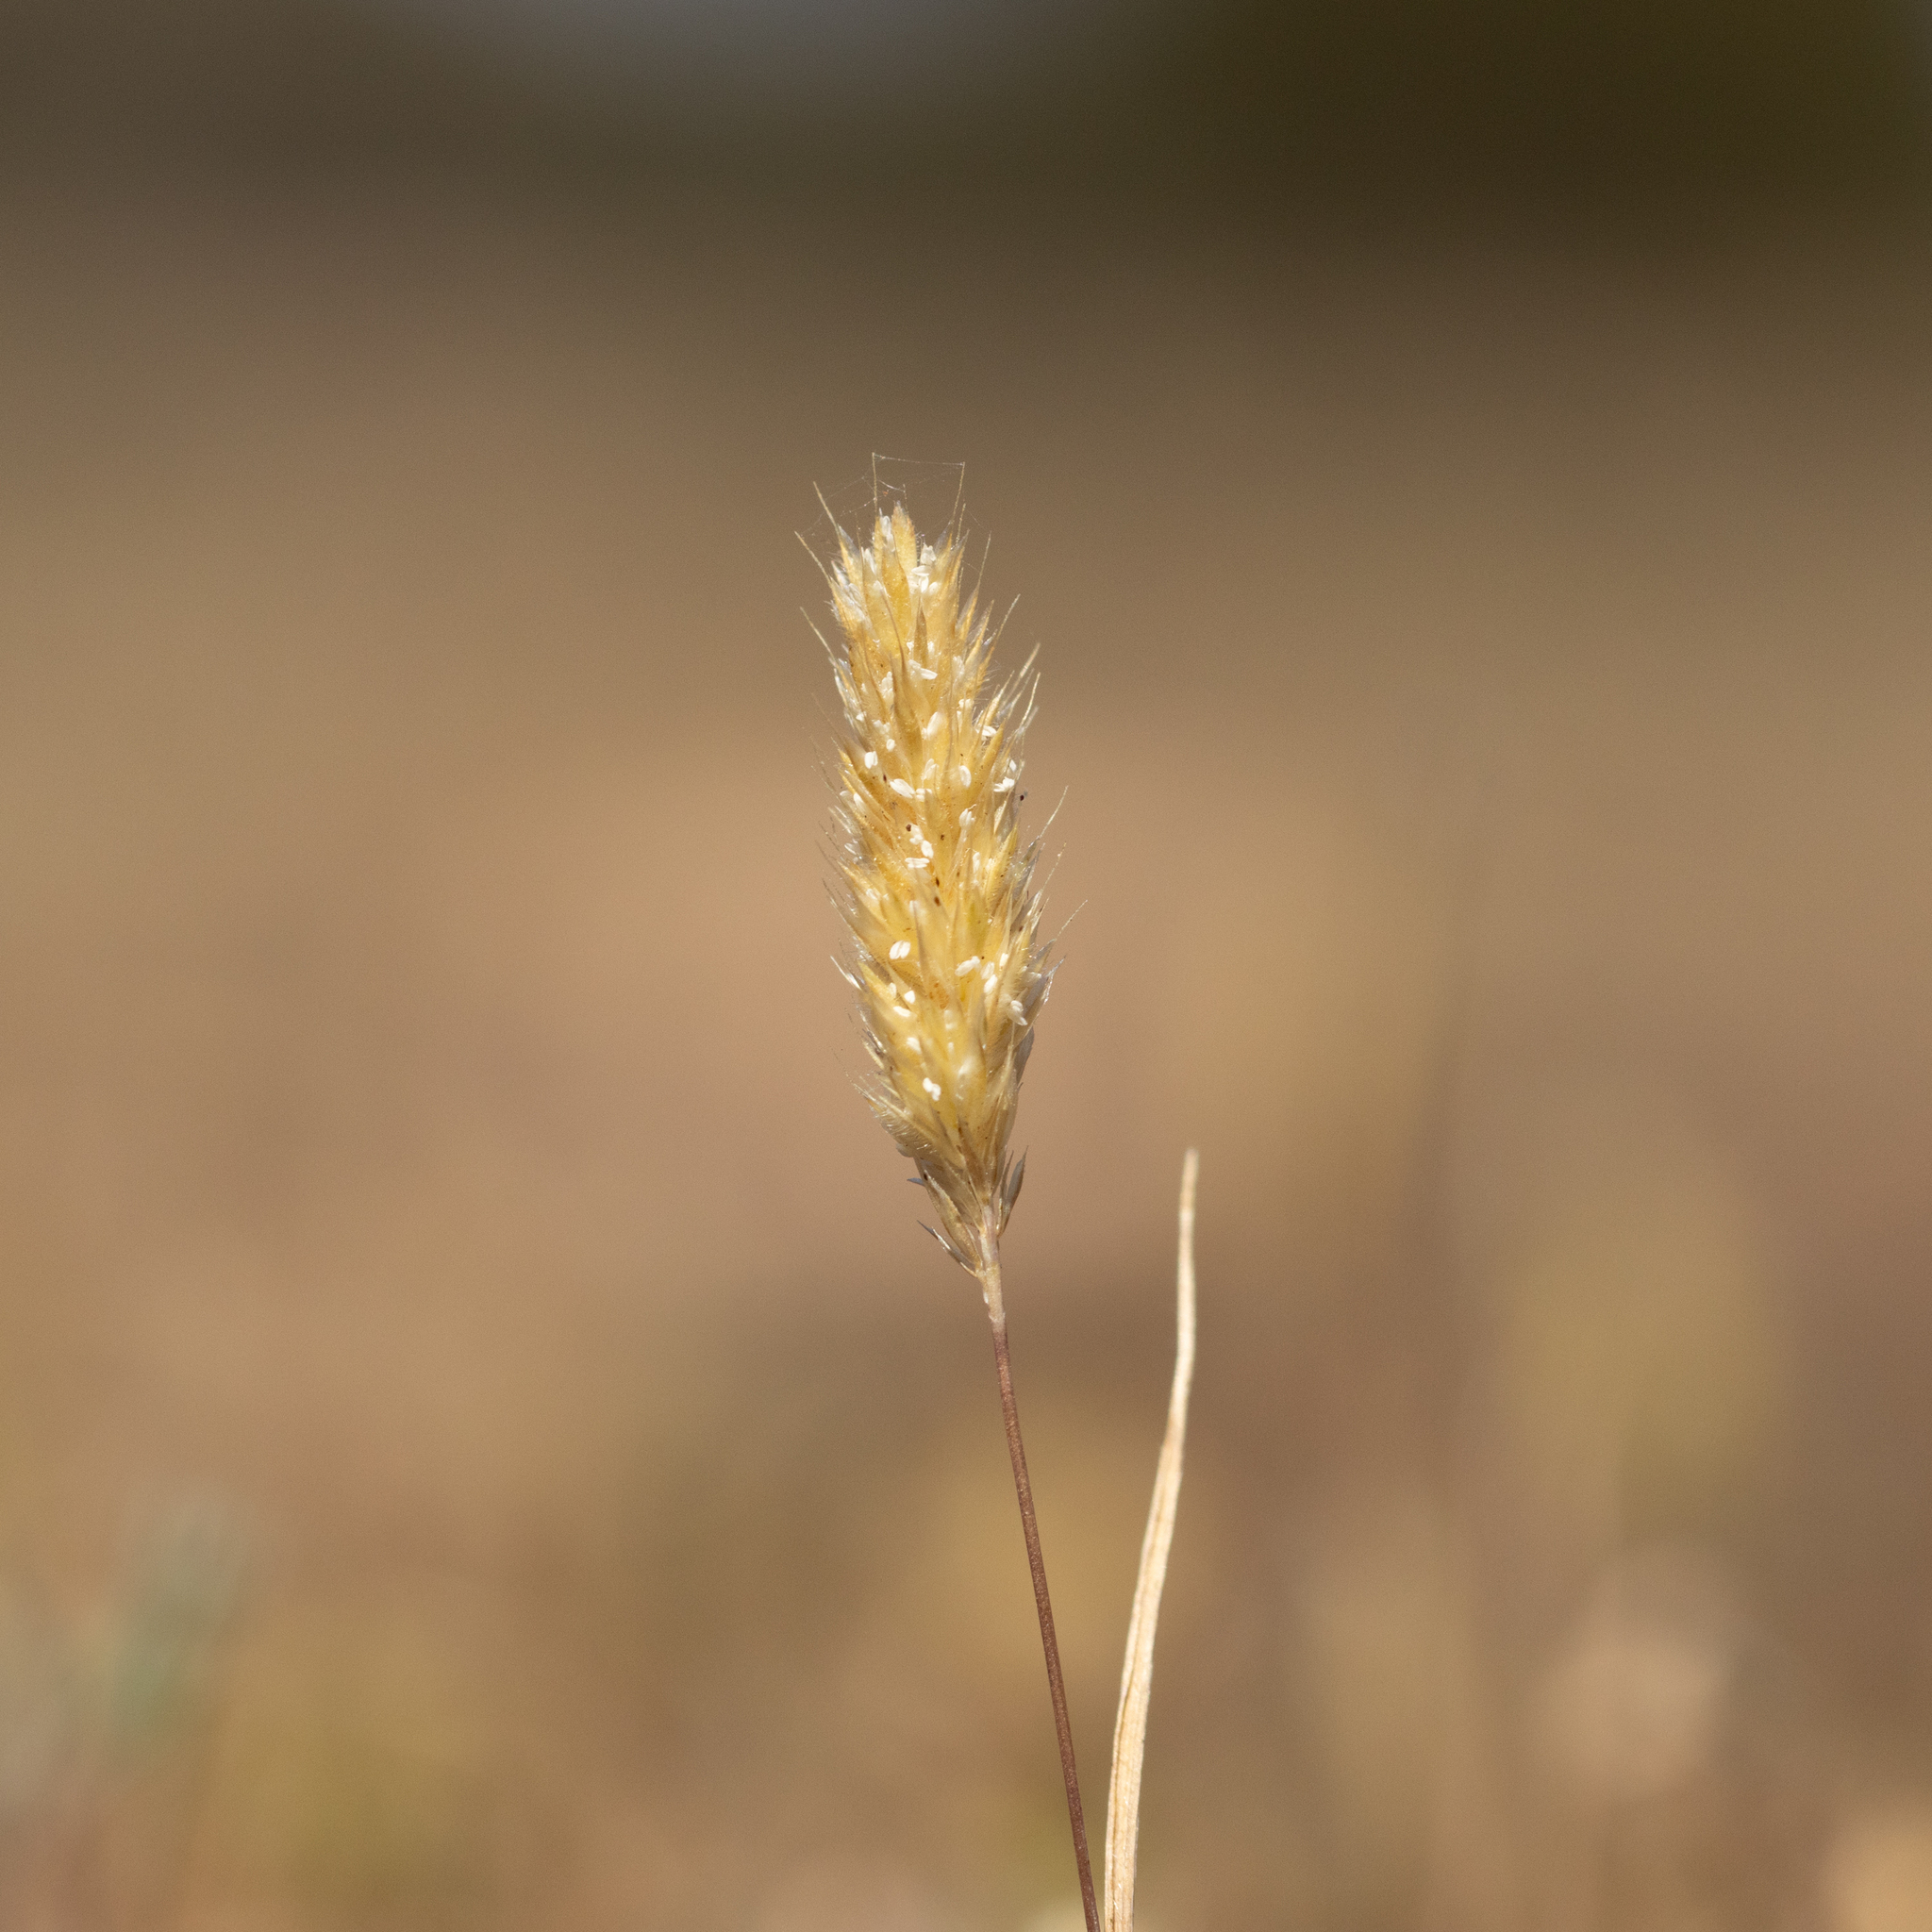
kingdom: Plantae
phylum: Tracheophyta
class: Liliopsida
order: Poales
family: Poaceae
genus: Rostraria
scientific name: Rostraria cristata
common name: Mediterranean hair-grass
